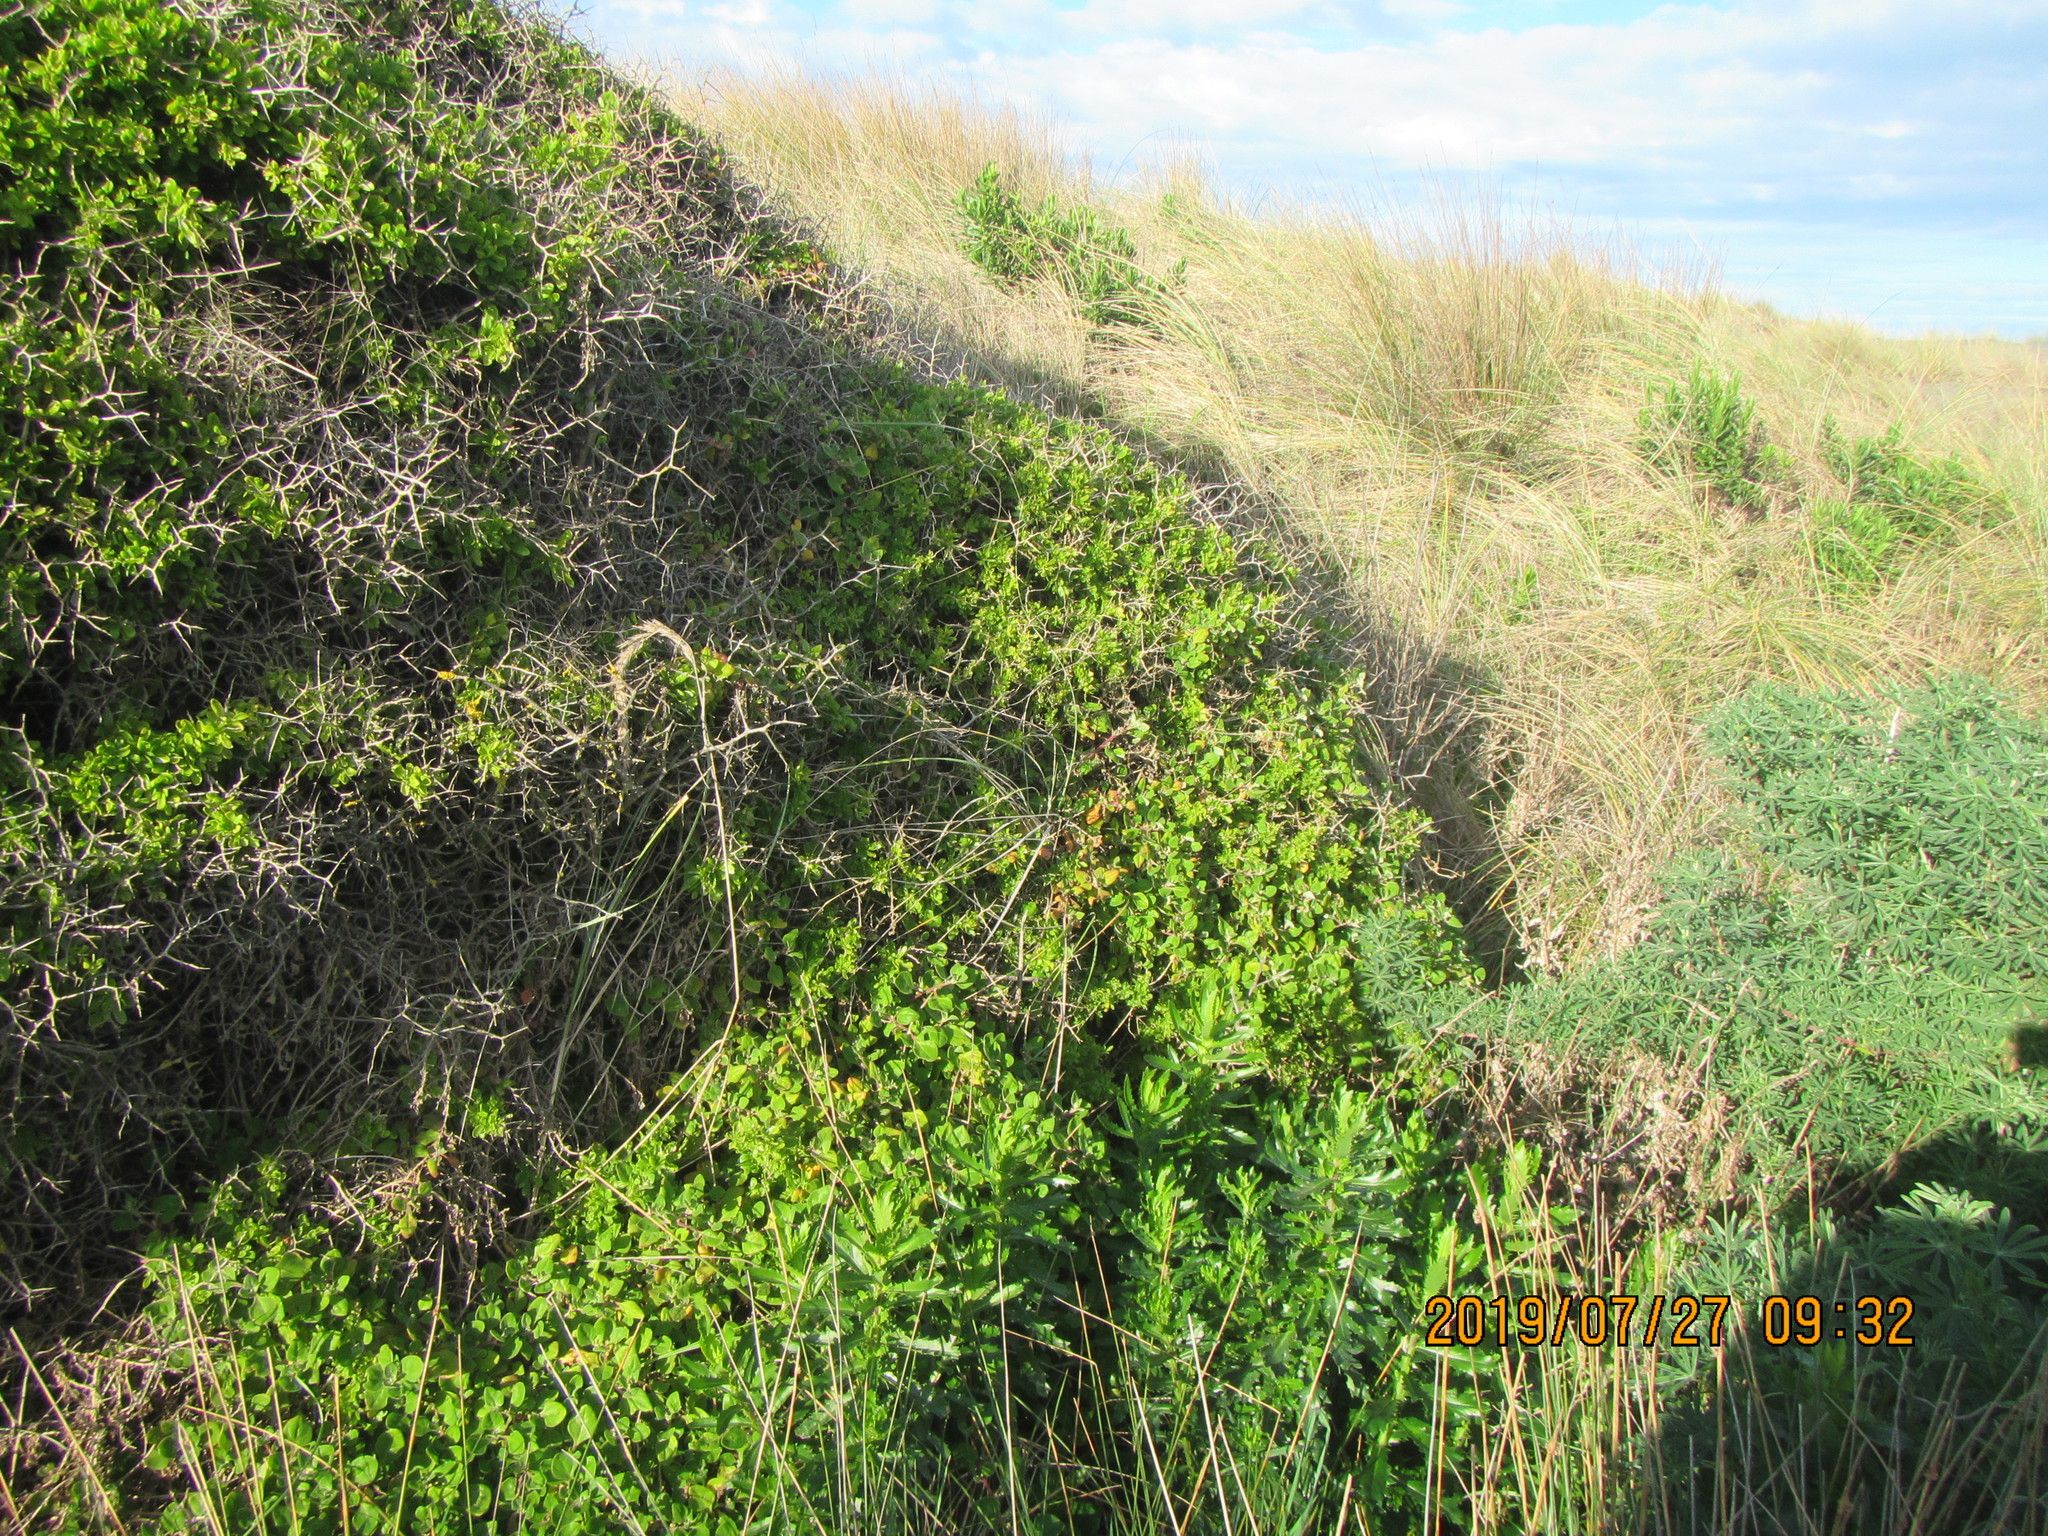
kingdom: Plantae
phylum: Tracheophyta
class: Magnoliopsida
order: Caryophyllales
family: Aizoaceae
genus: Tetragonia
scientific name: Tetragonia implexicoma
